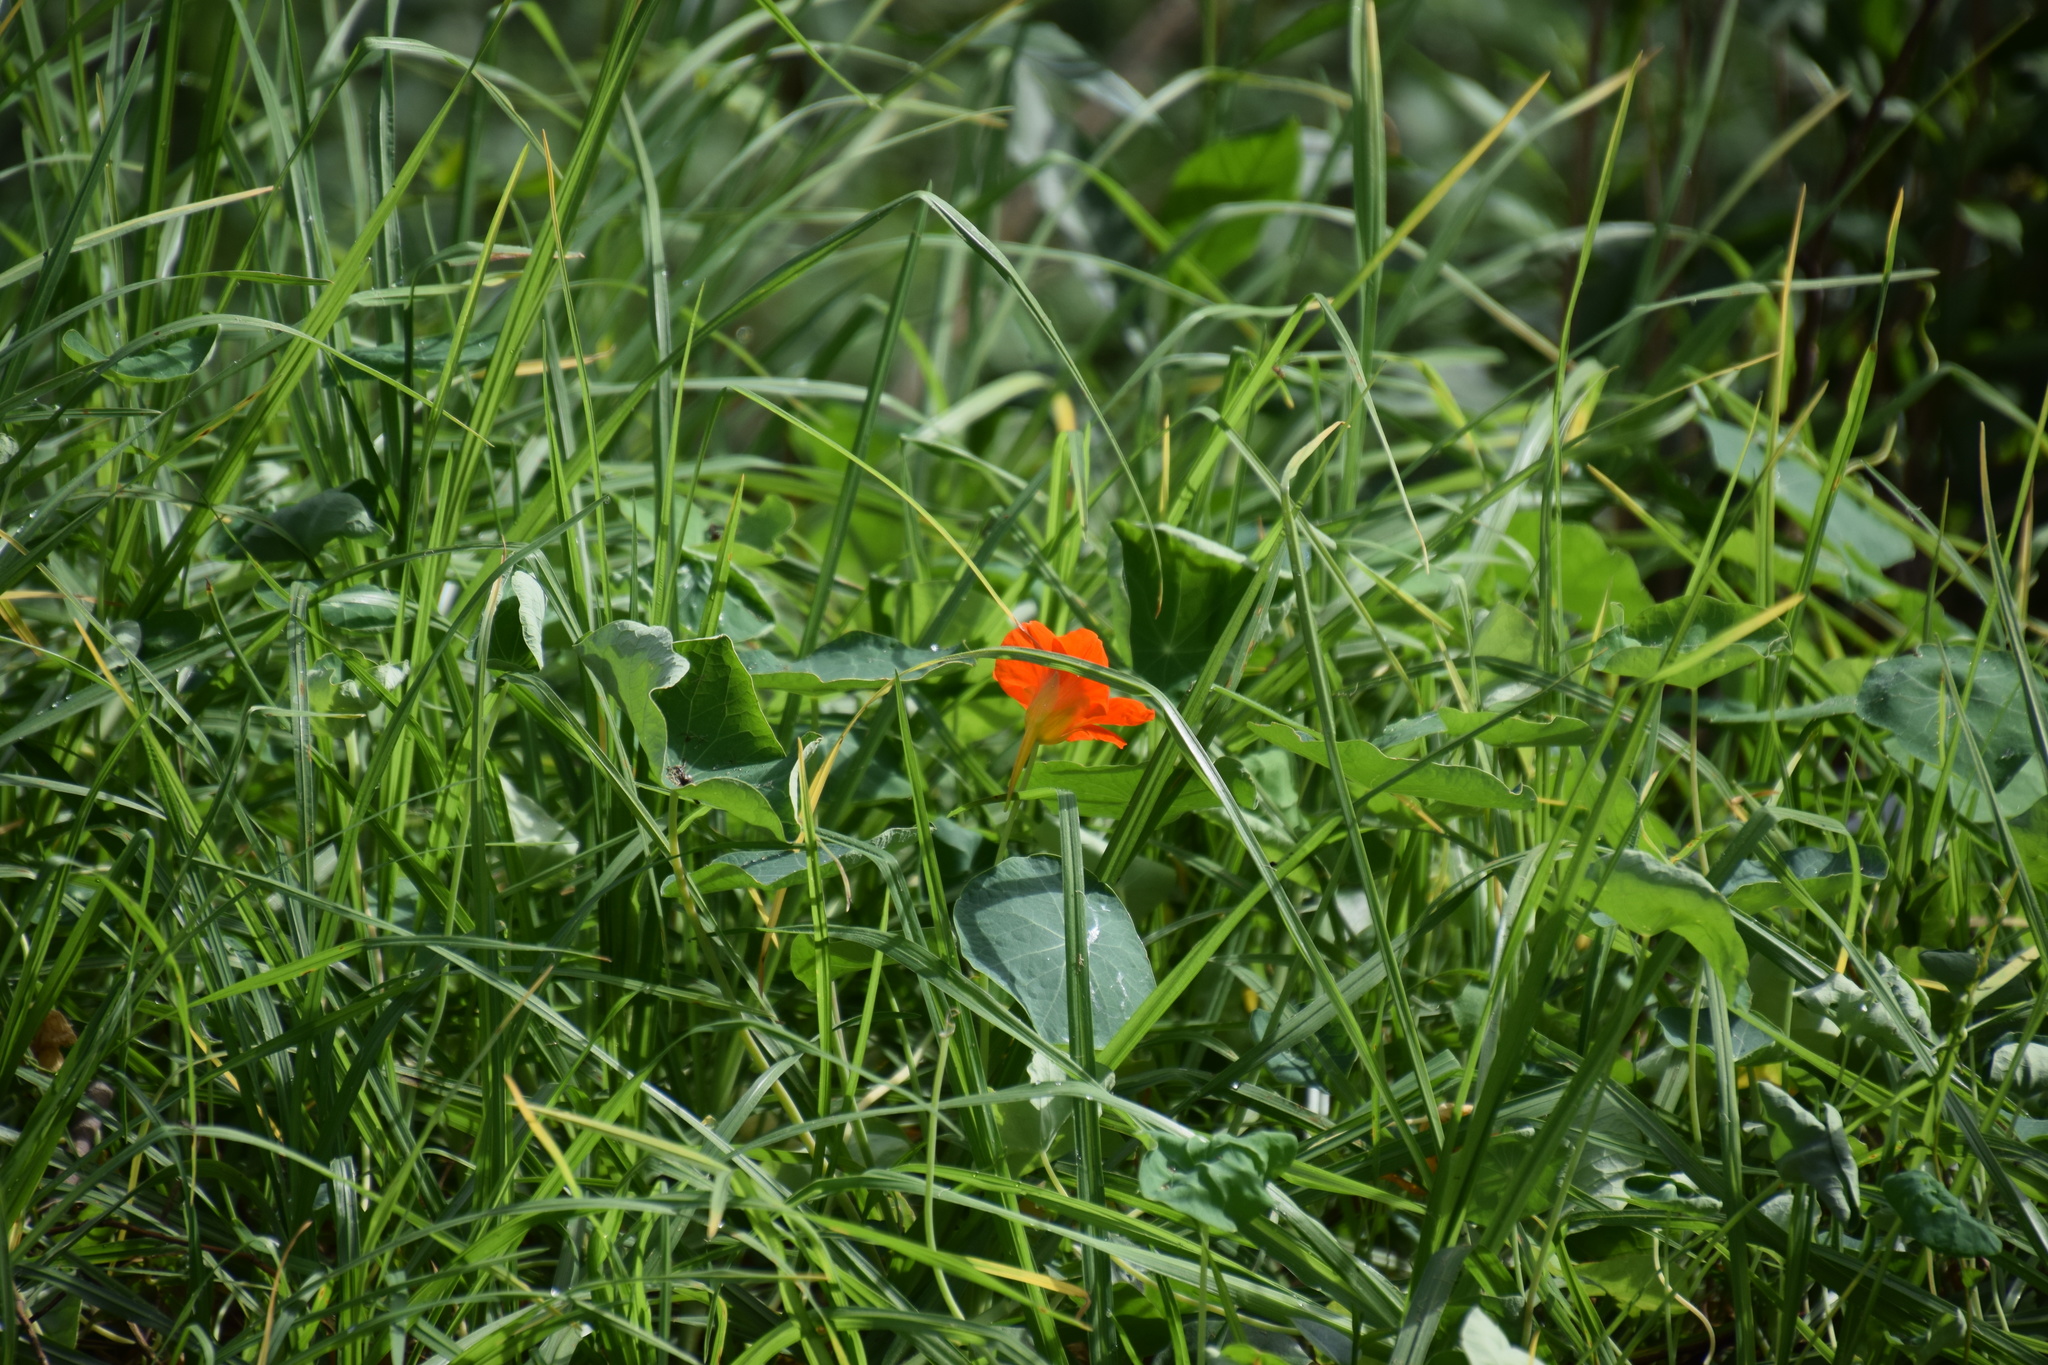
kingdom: Plantae
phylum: Tracheophyta
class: Magnoliopsida
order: Brassicales
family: Tropaeolaceae
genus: Tropaeolum
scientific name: Tropaeolum majus
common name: Nasturtium
